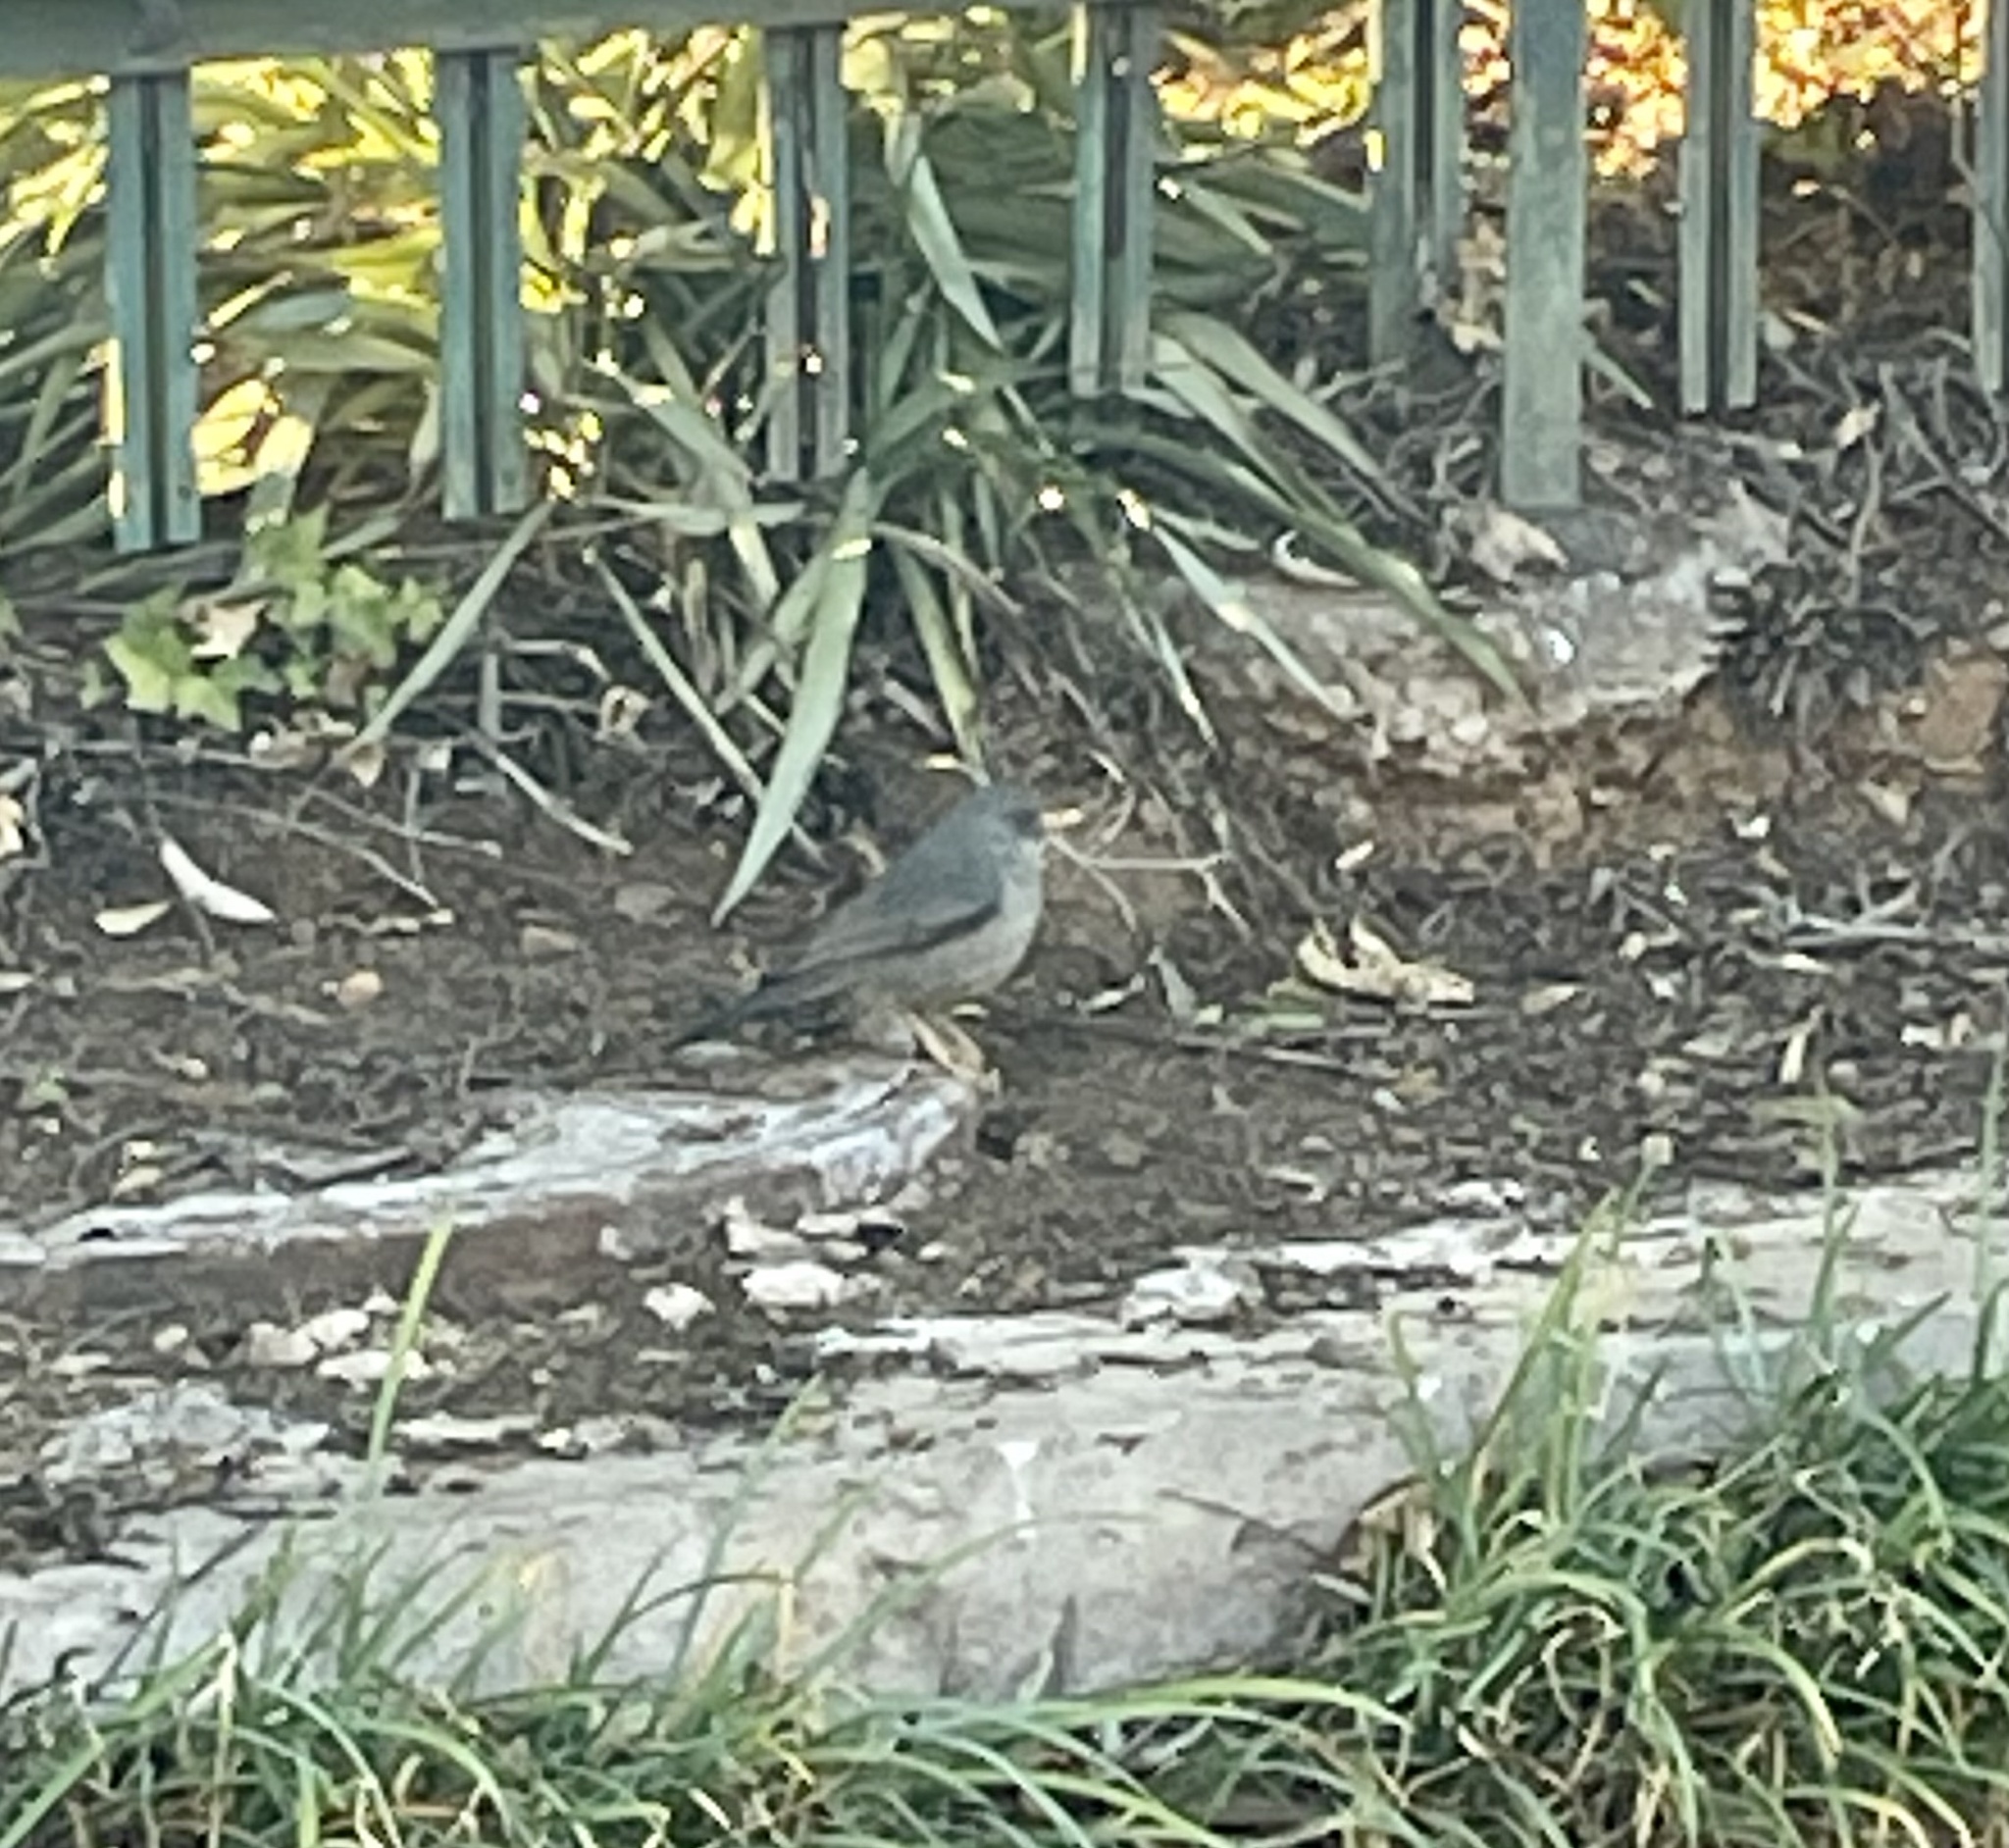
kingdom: Animalia
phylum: Chordata
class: Aves
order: Passeriformes
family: Turdidae
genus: Turdus
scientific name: Turdus smithi
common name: Karoo thrush
